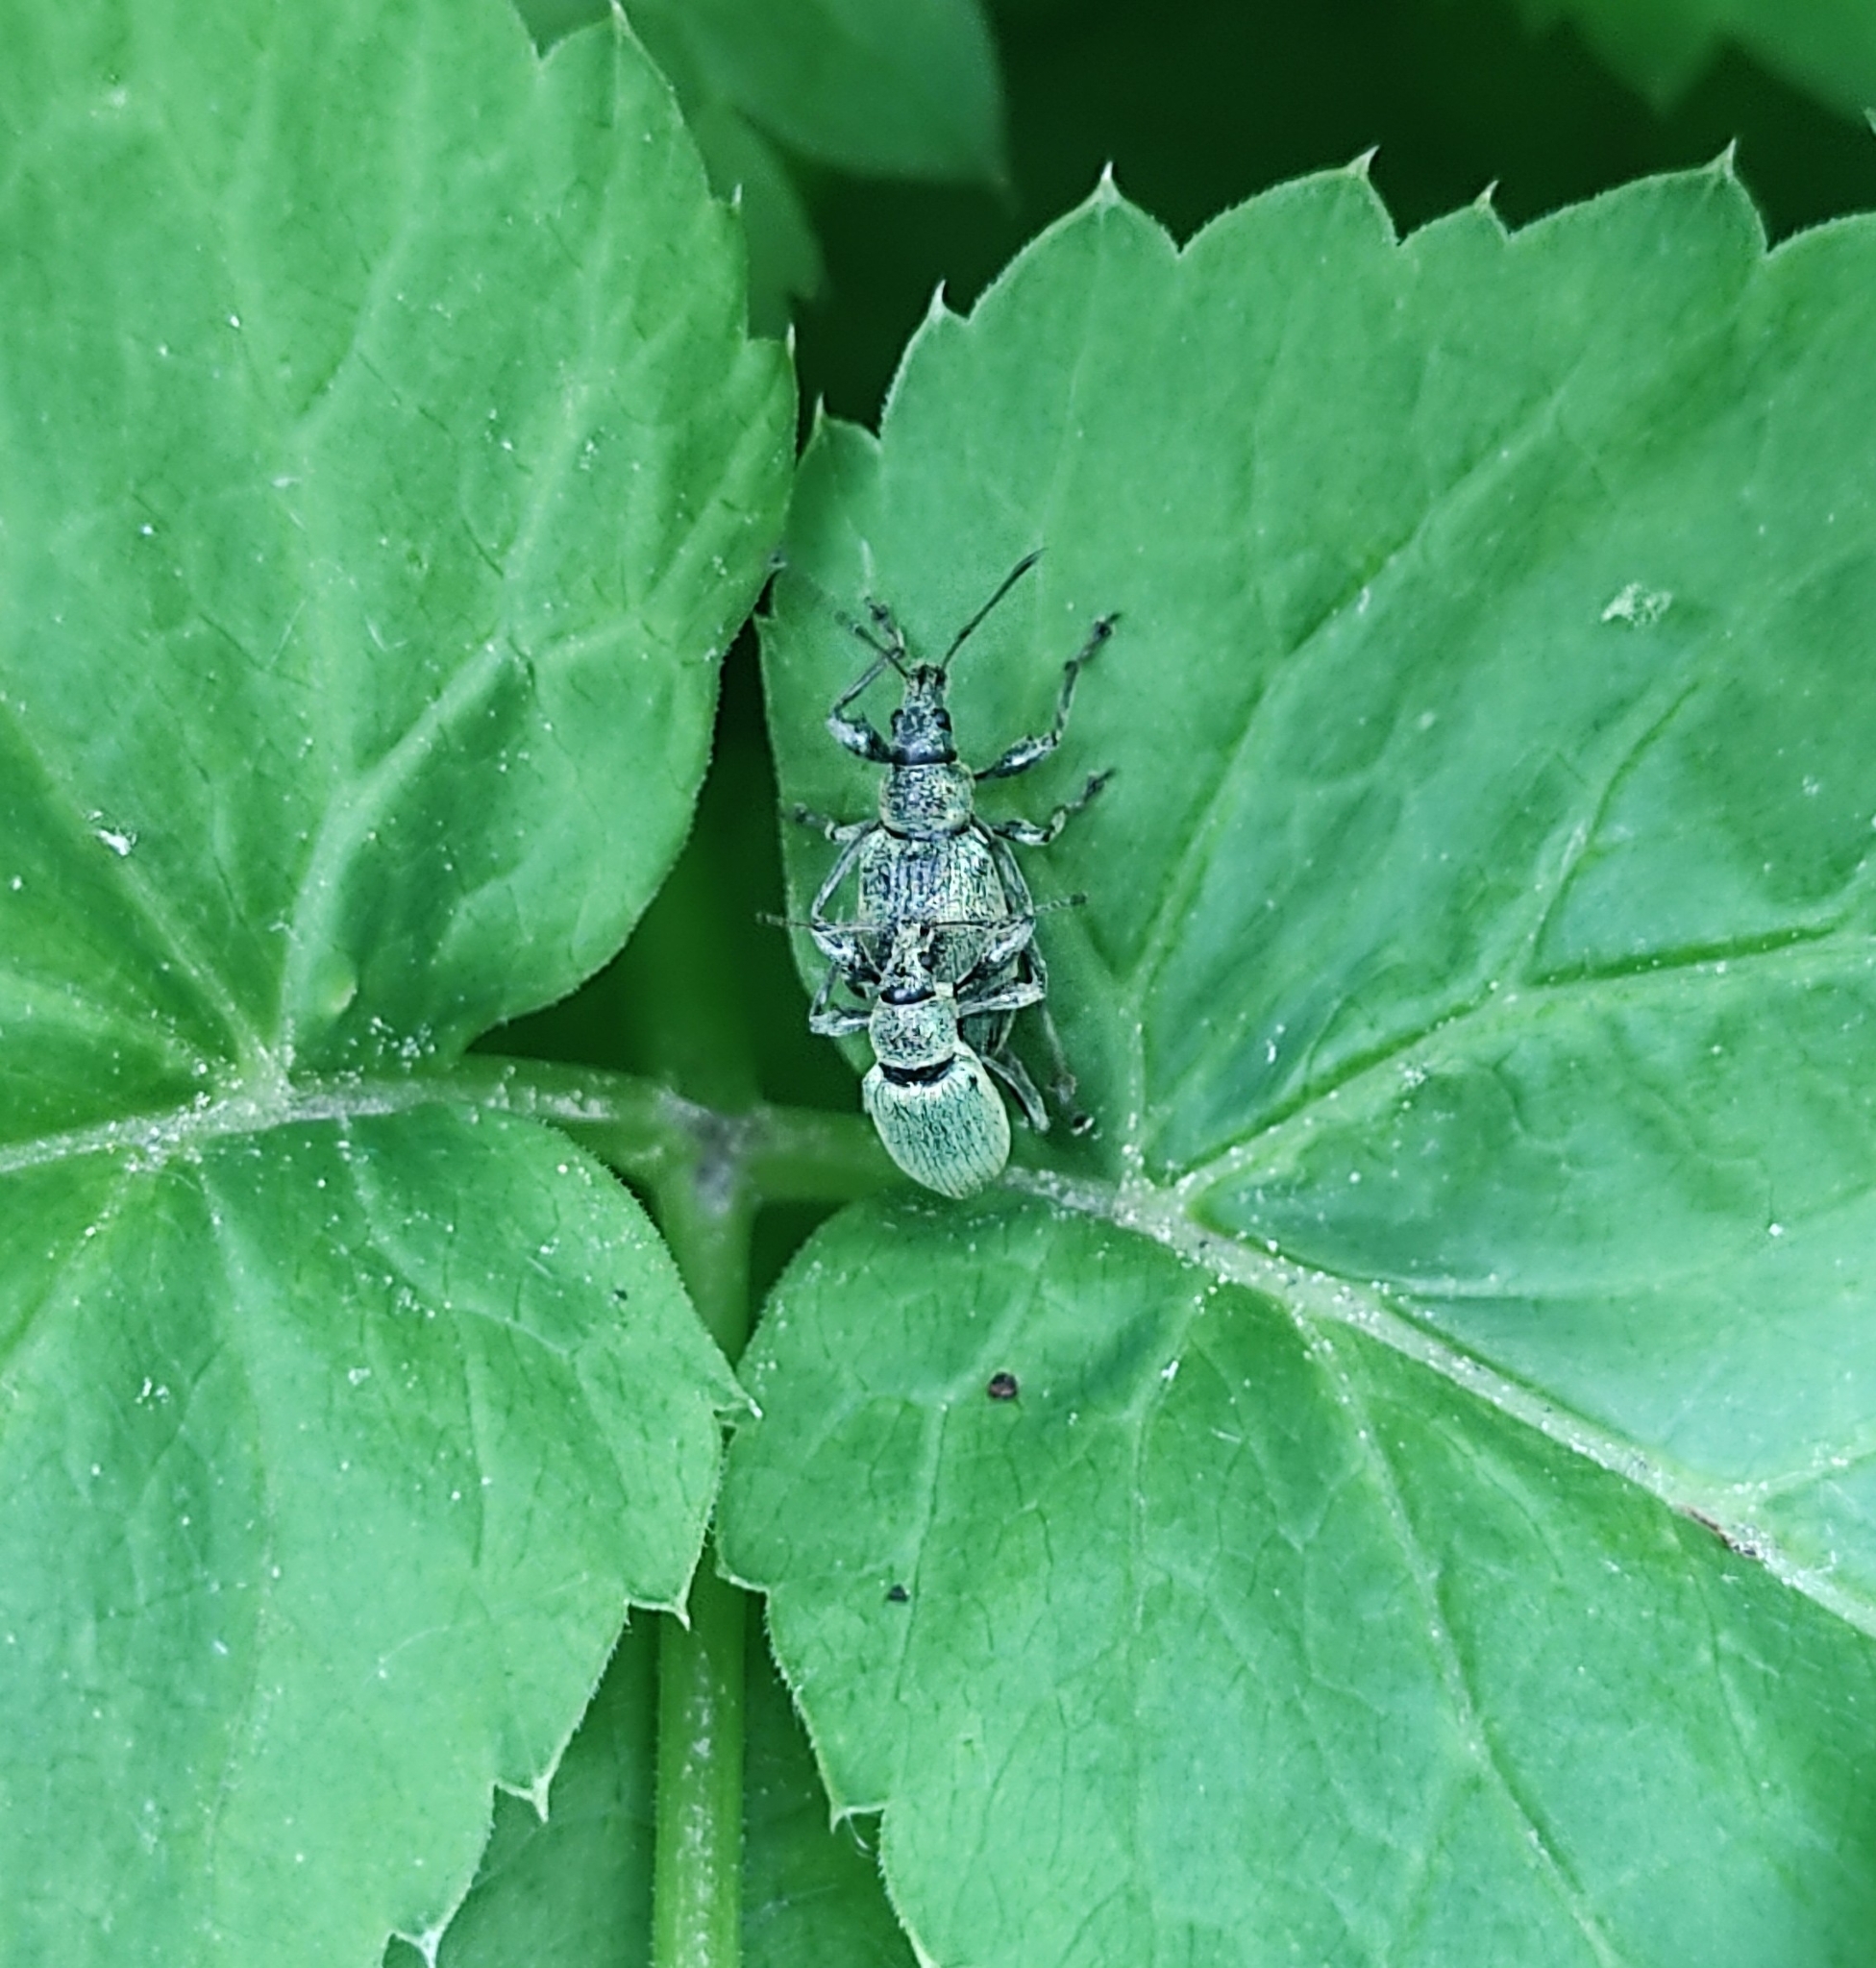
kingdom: Animalia
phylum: Arthropoda
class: Insecta
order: Coleoptera
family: Curculionidae
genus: Phyllobius
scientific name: Phyllobius pomaceus
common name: Green nettle weevil
